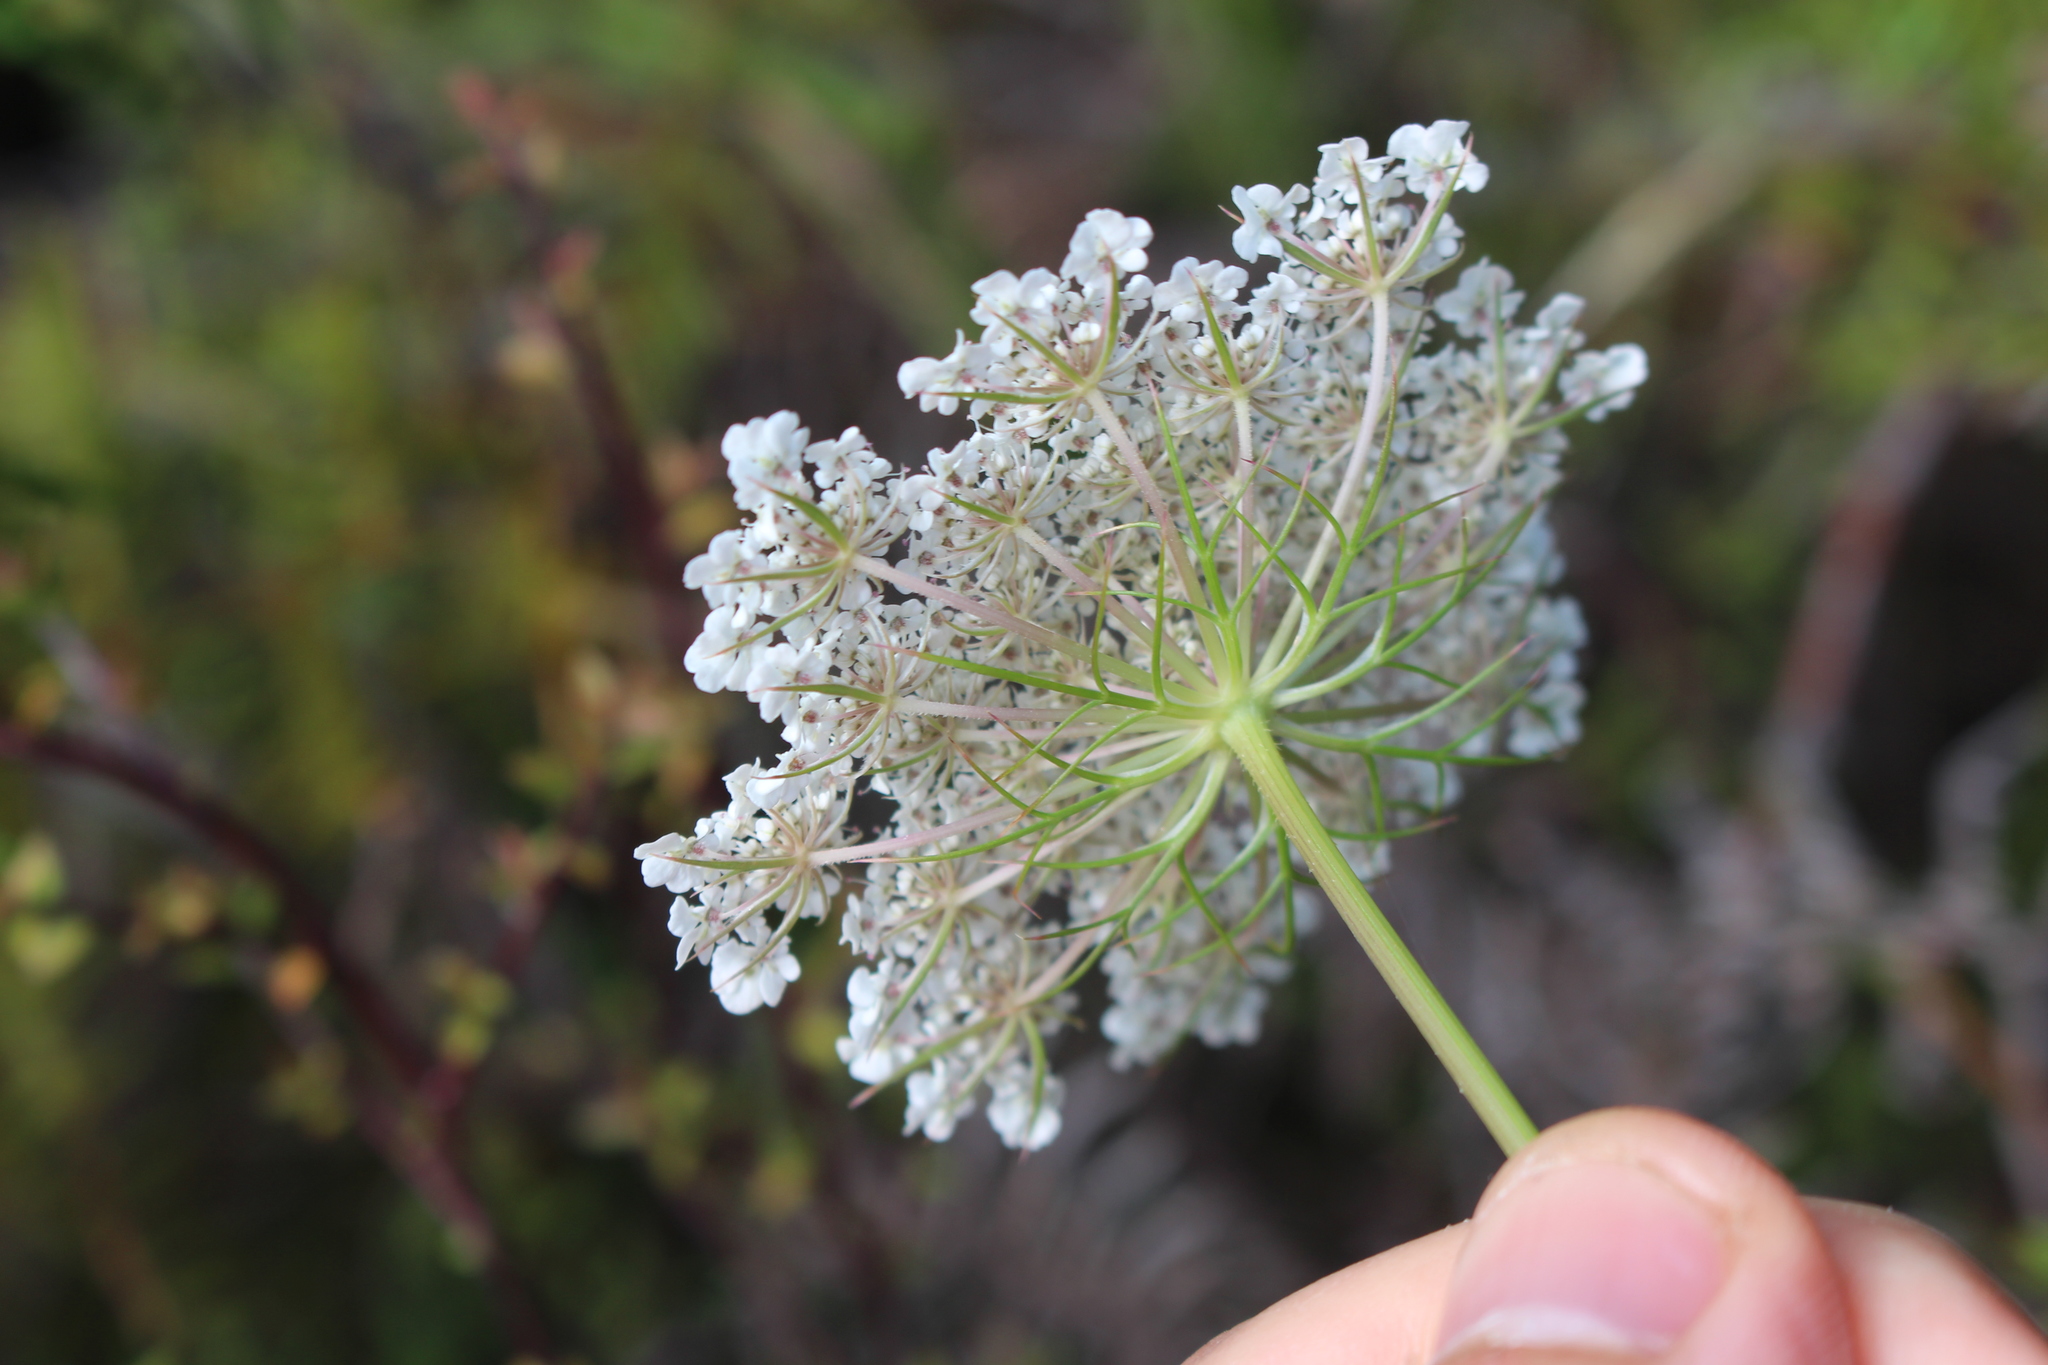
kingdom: Plantae
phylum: Tracheophyta
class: Magnoliopsida
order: Apiales
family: Apiaceae
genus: Daucus
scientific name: Daucus carota
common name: Wild carrot
